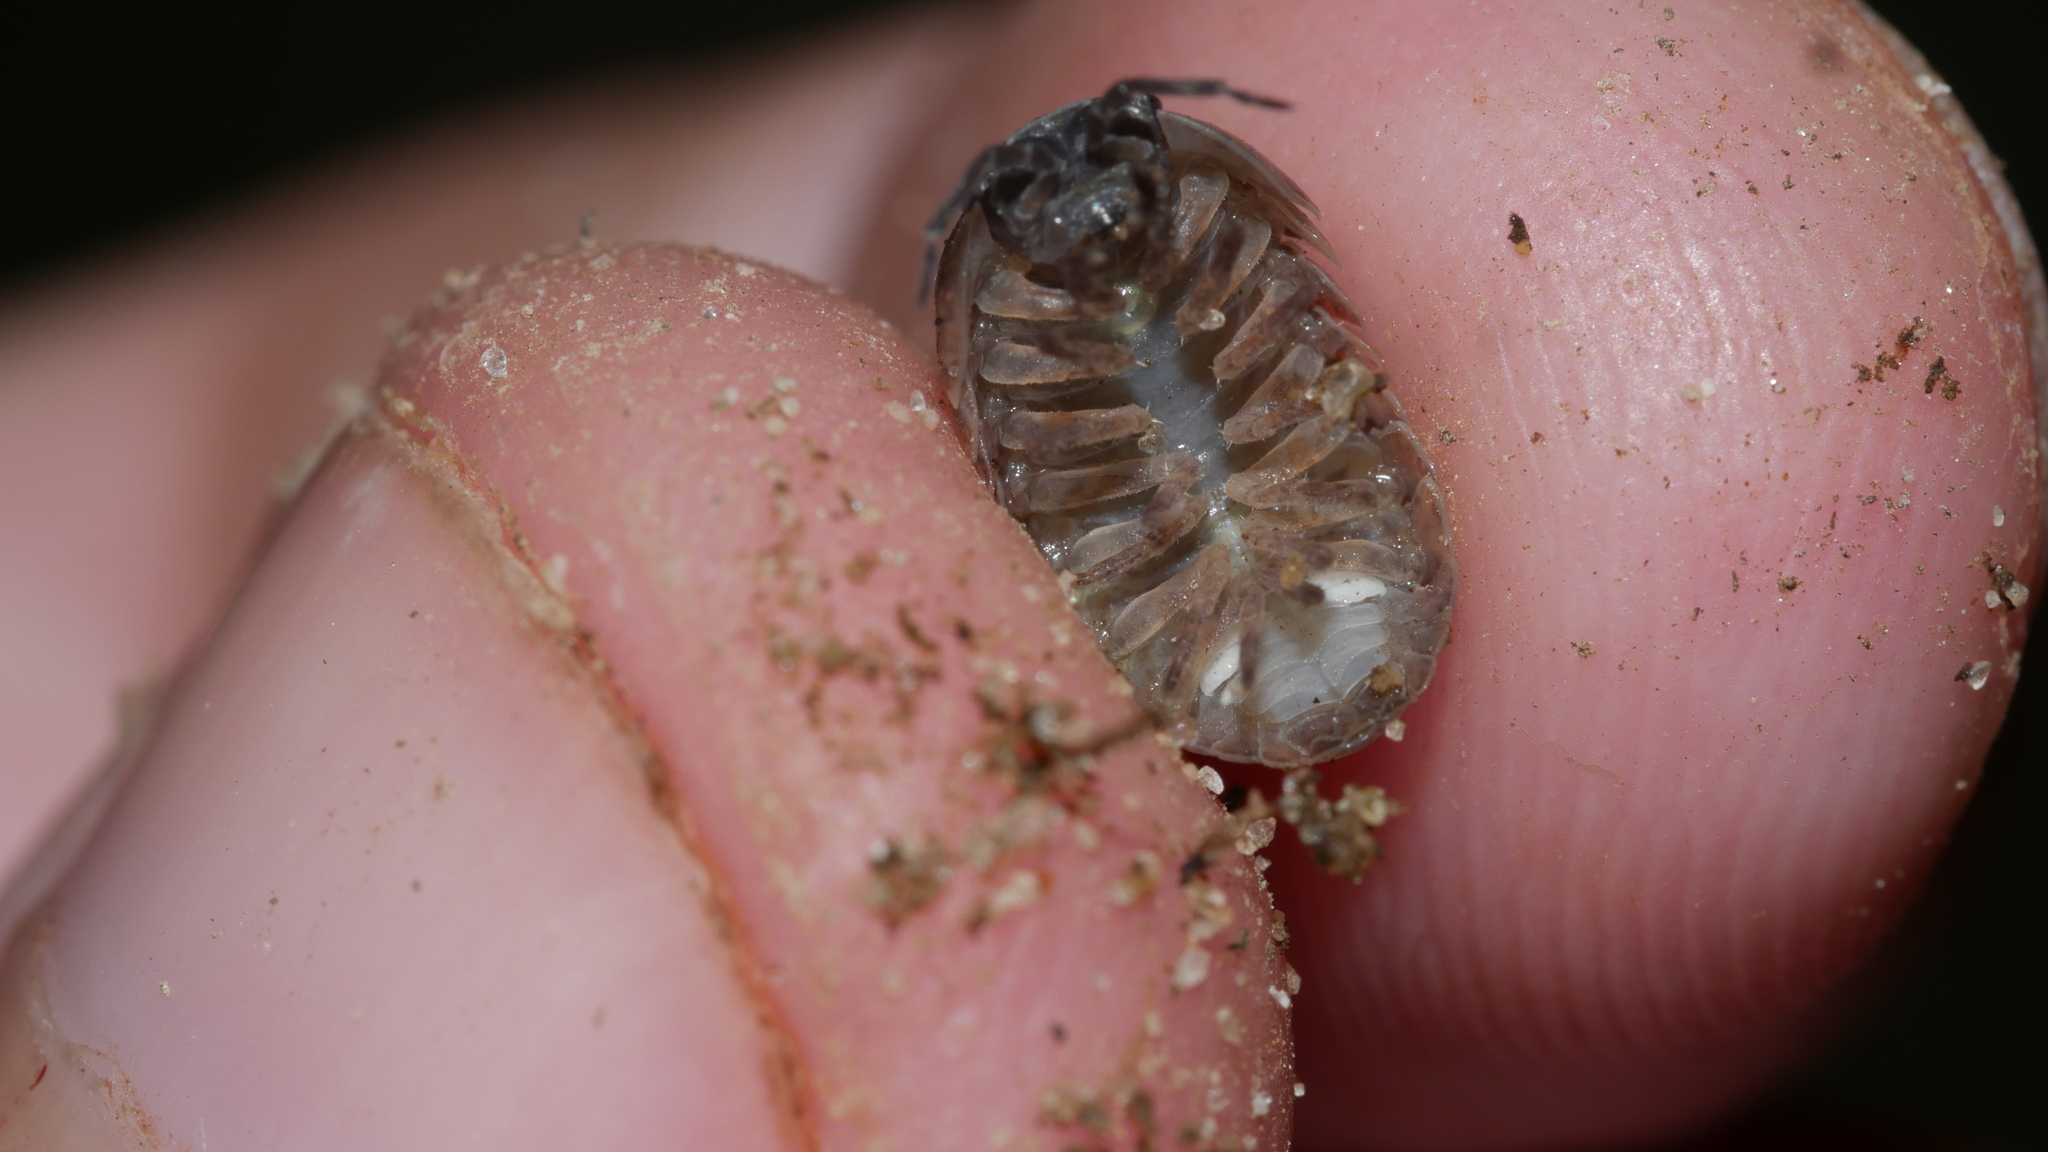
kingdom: Animalia
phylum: Arthropoda
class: Malacostraca
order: Isopoda
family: Armadillidiidae
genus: Armadillidium
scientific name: Armadillidium vulgare
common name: Common pill woodlouse
